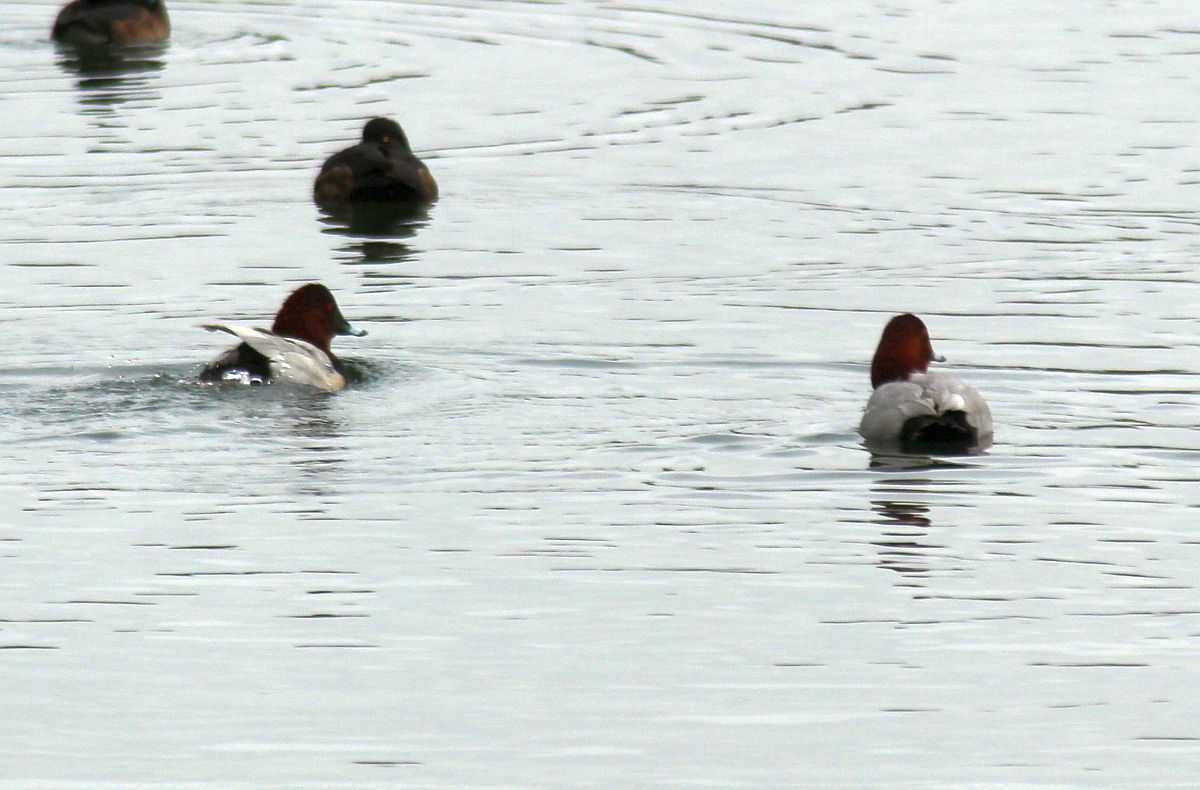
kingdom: Animalia
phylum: Chordata
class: Aves
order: Anseriformes
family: Anatidae
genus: Aythya
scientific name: Aythya ferina
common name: Common pochard
